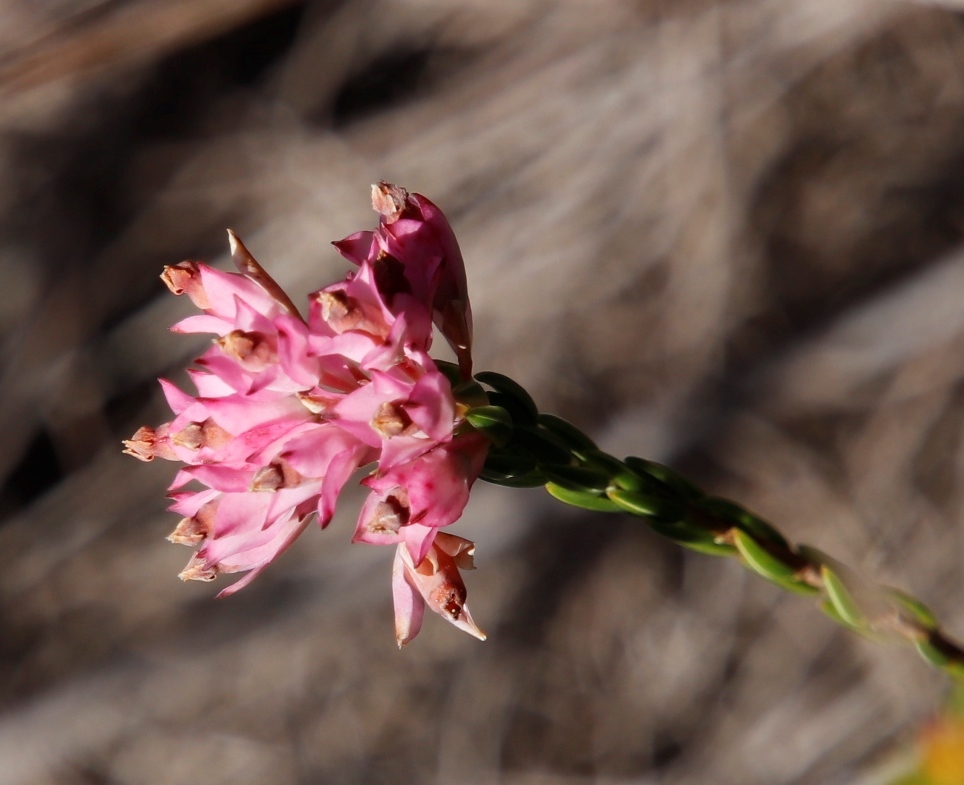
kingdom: Plantae
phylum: Tracheophyta
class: Magnoliopsida
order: Ericales
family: Ericaceae
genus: Erica
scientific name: Erica corifolia
